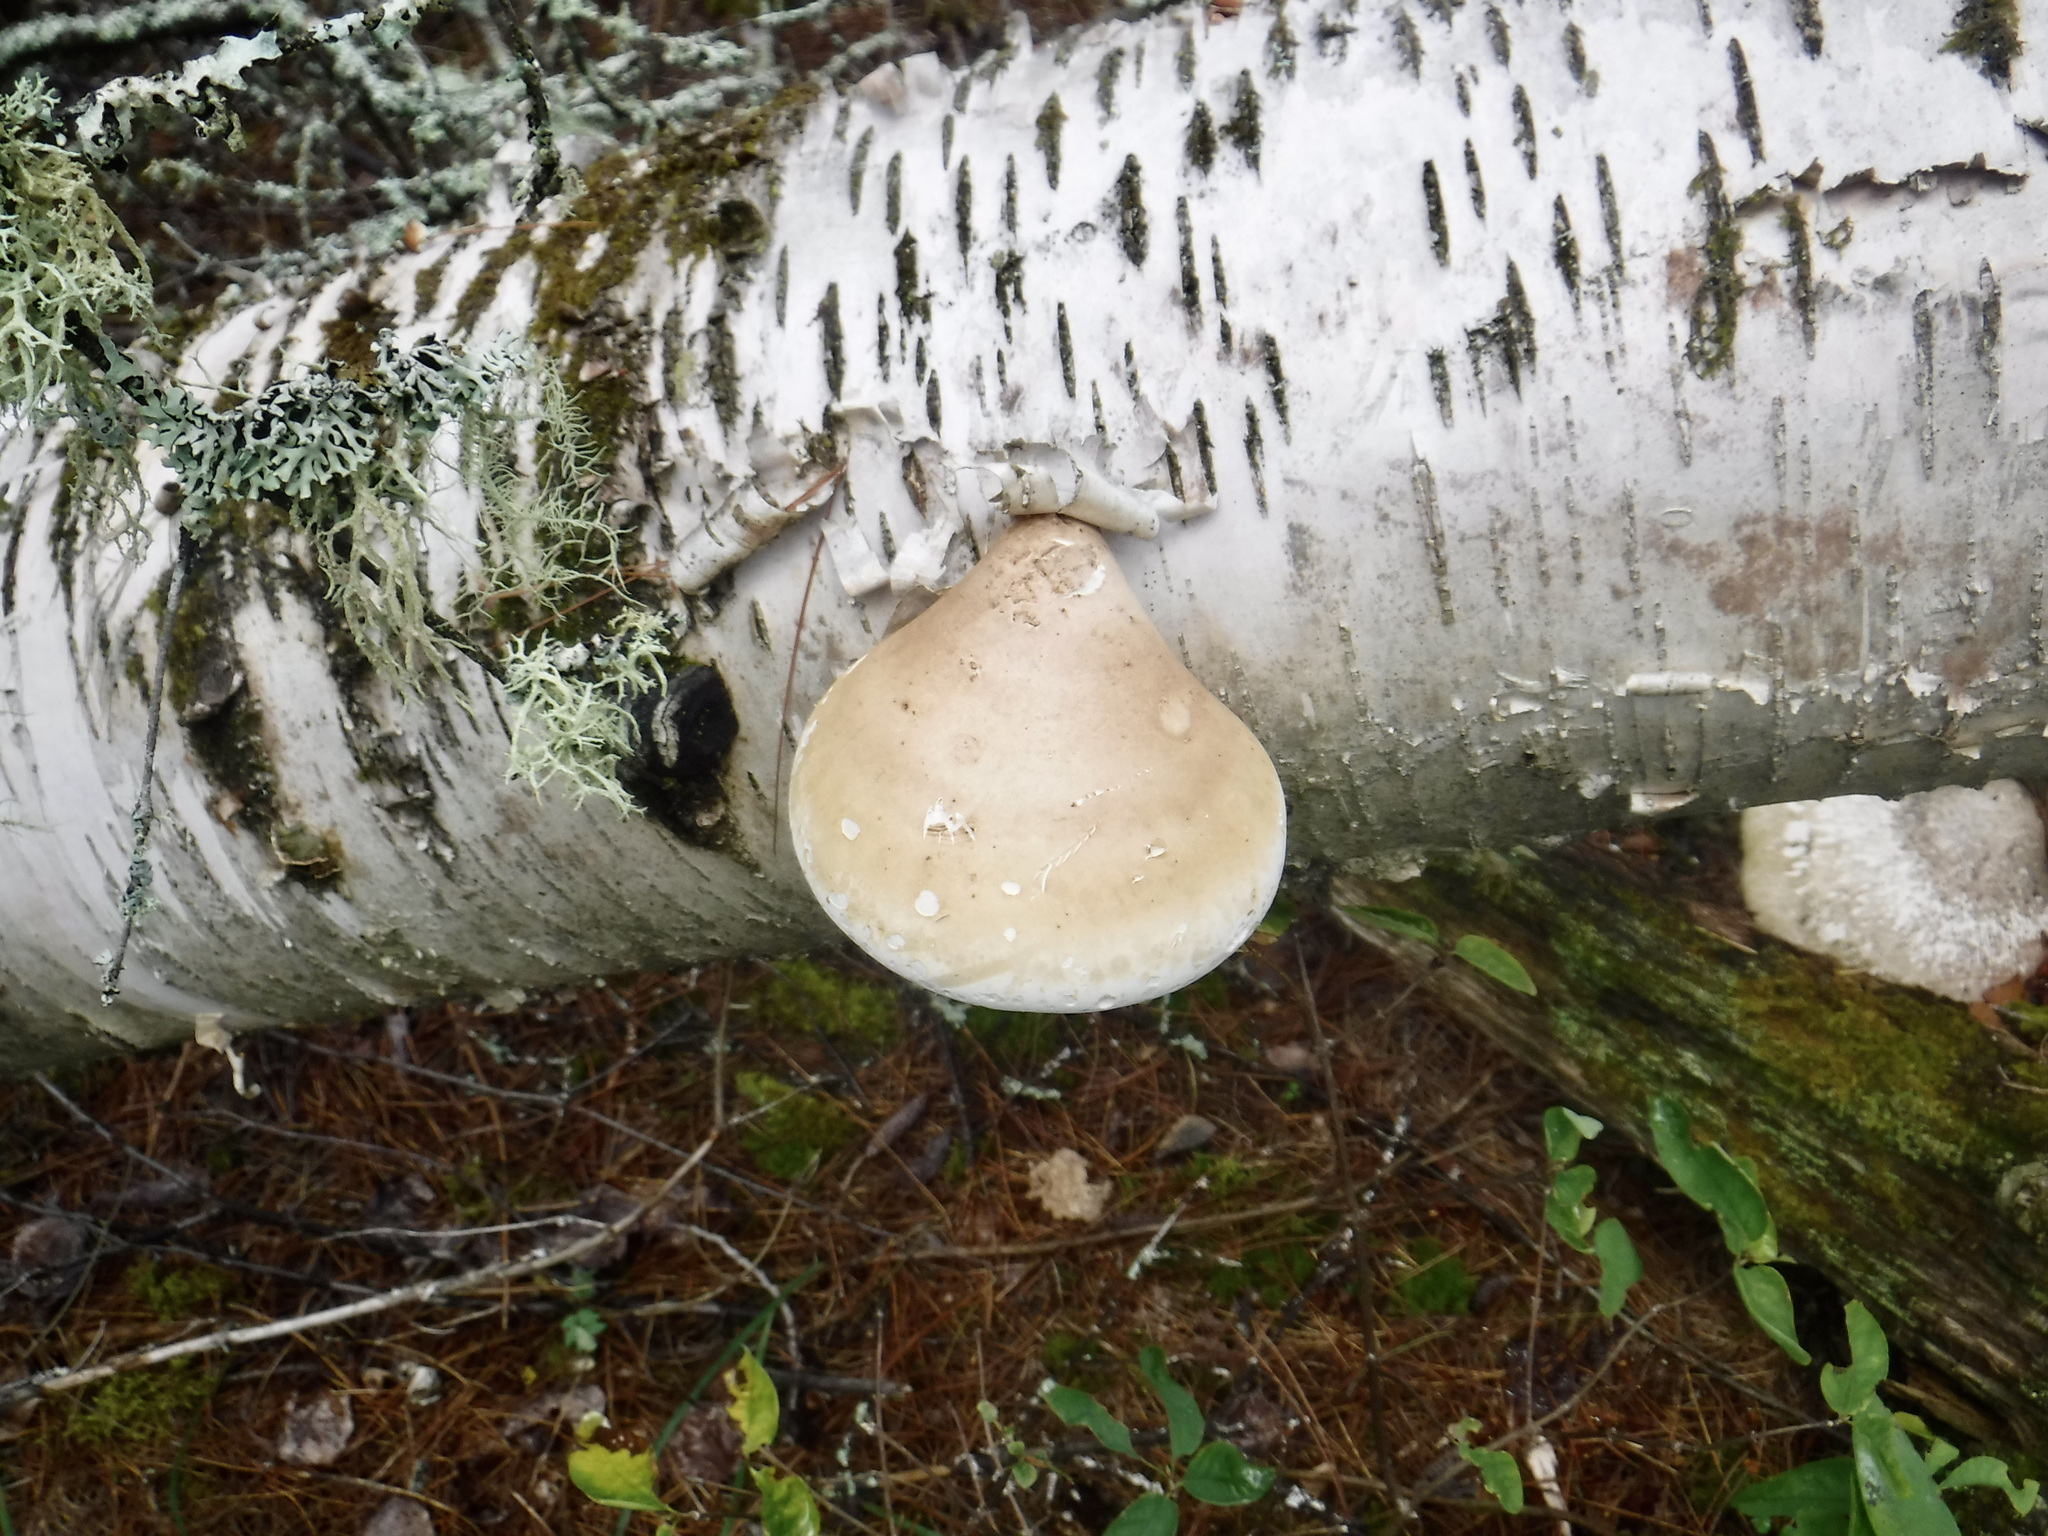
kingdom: Fungi
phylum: Basidiomycota
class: Agaricomycetes
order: Polyporales
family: Fomitopsidaceae
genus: Fomitopsis
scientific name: Fomitopsis betulina
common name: Birch polypore
